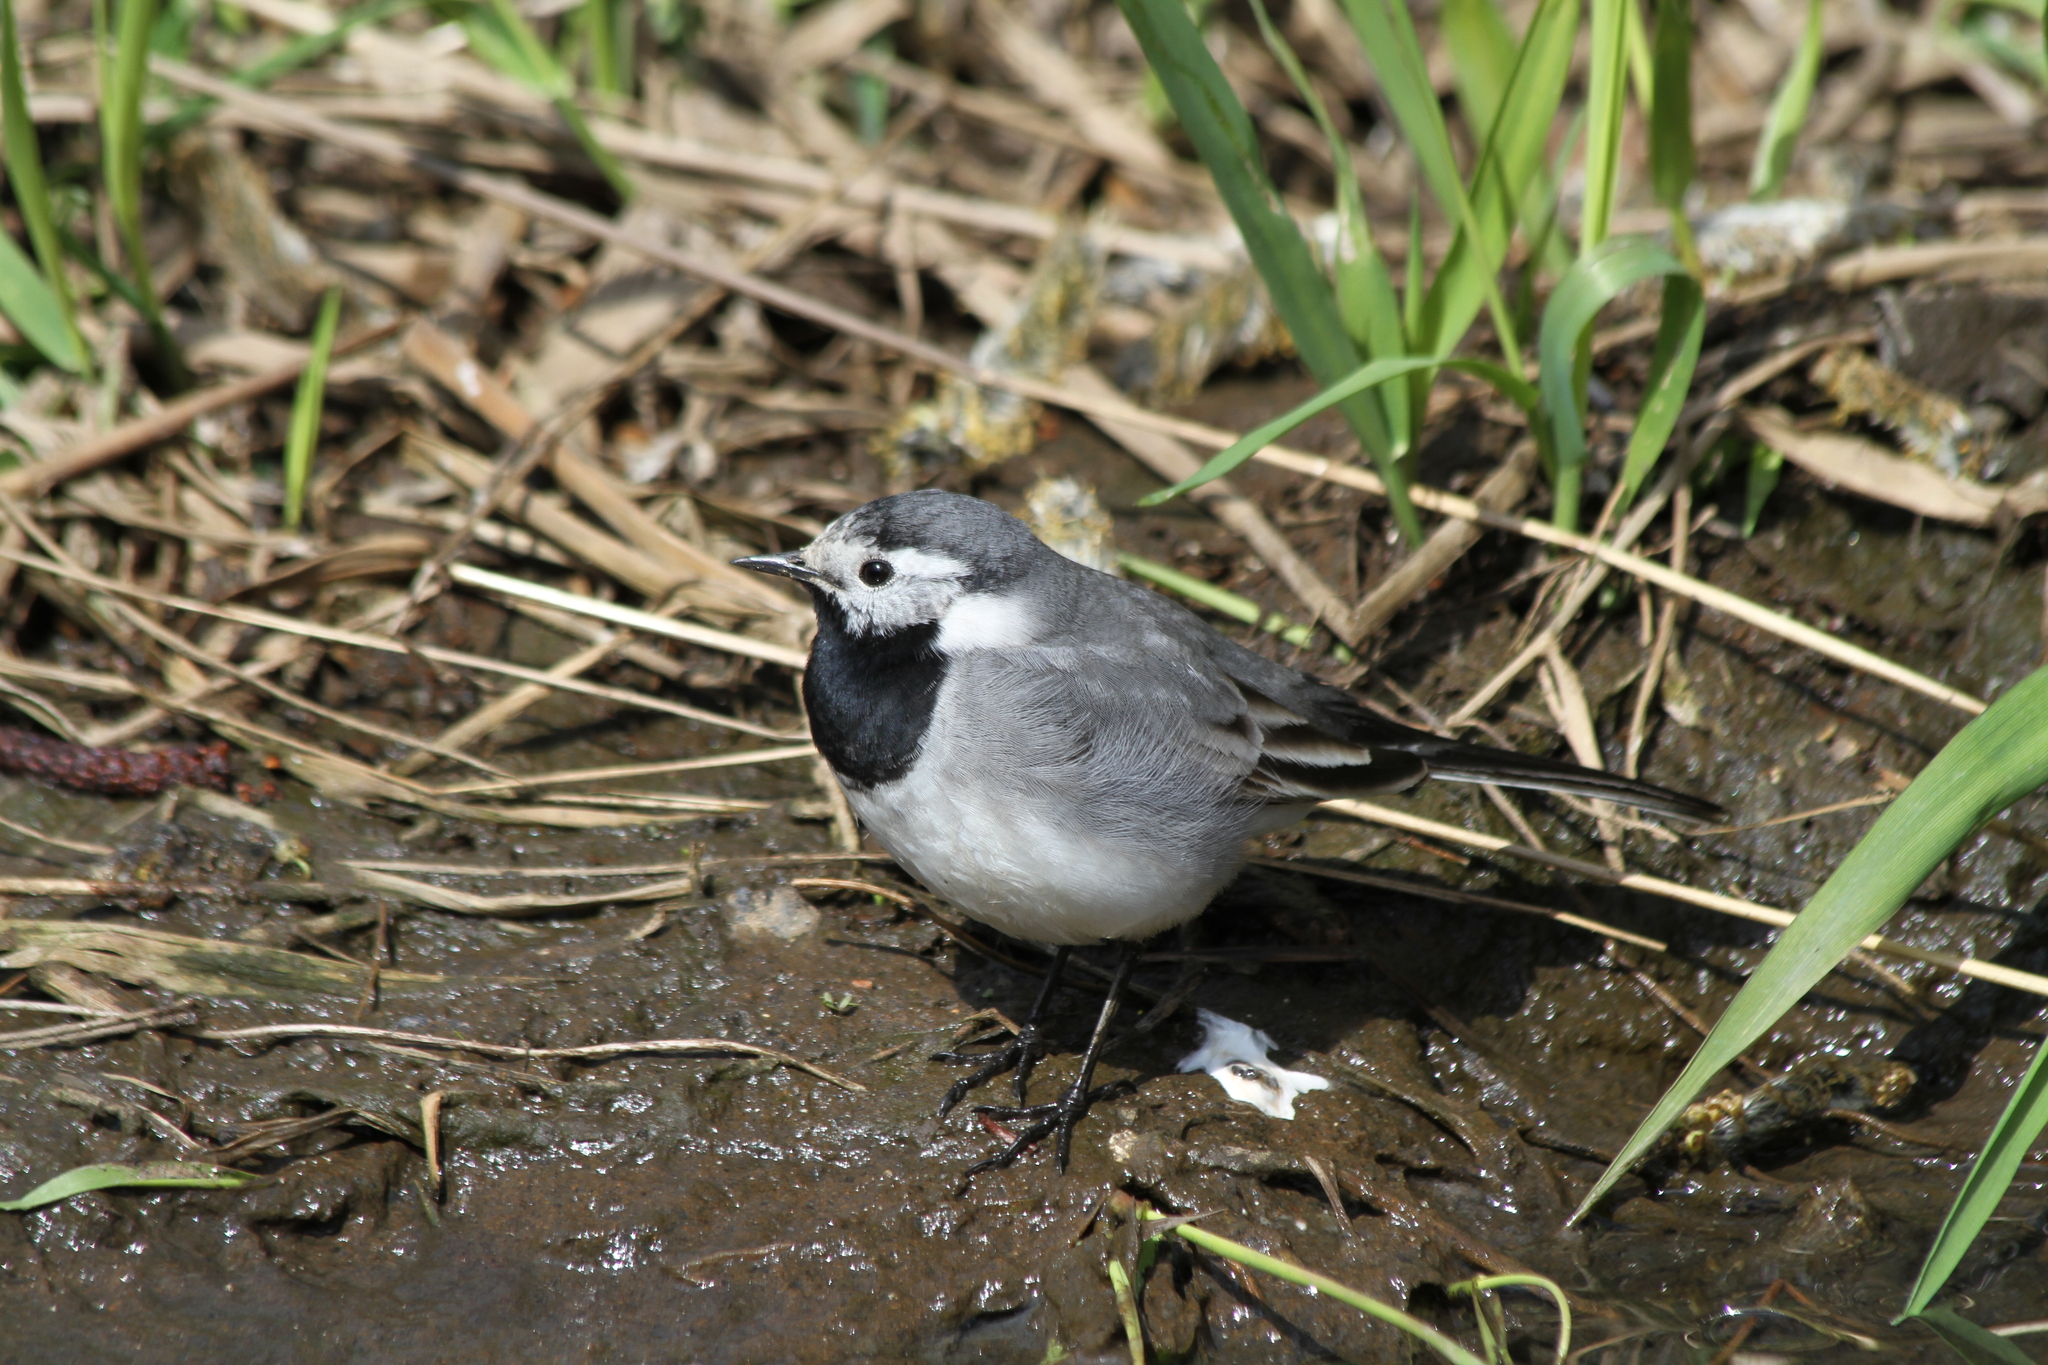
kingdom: Animalia
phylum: Chordata
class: Aves
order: Passeriformes
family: Motacillidae
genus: Motacilla
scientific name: Motacilla alba
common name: White wagtail
